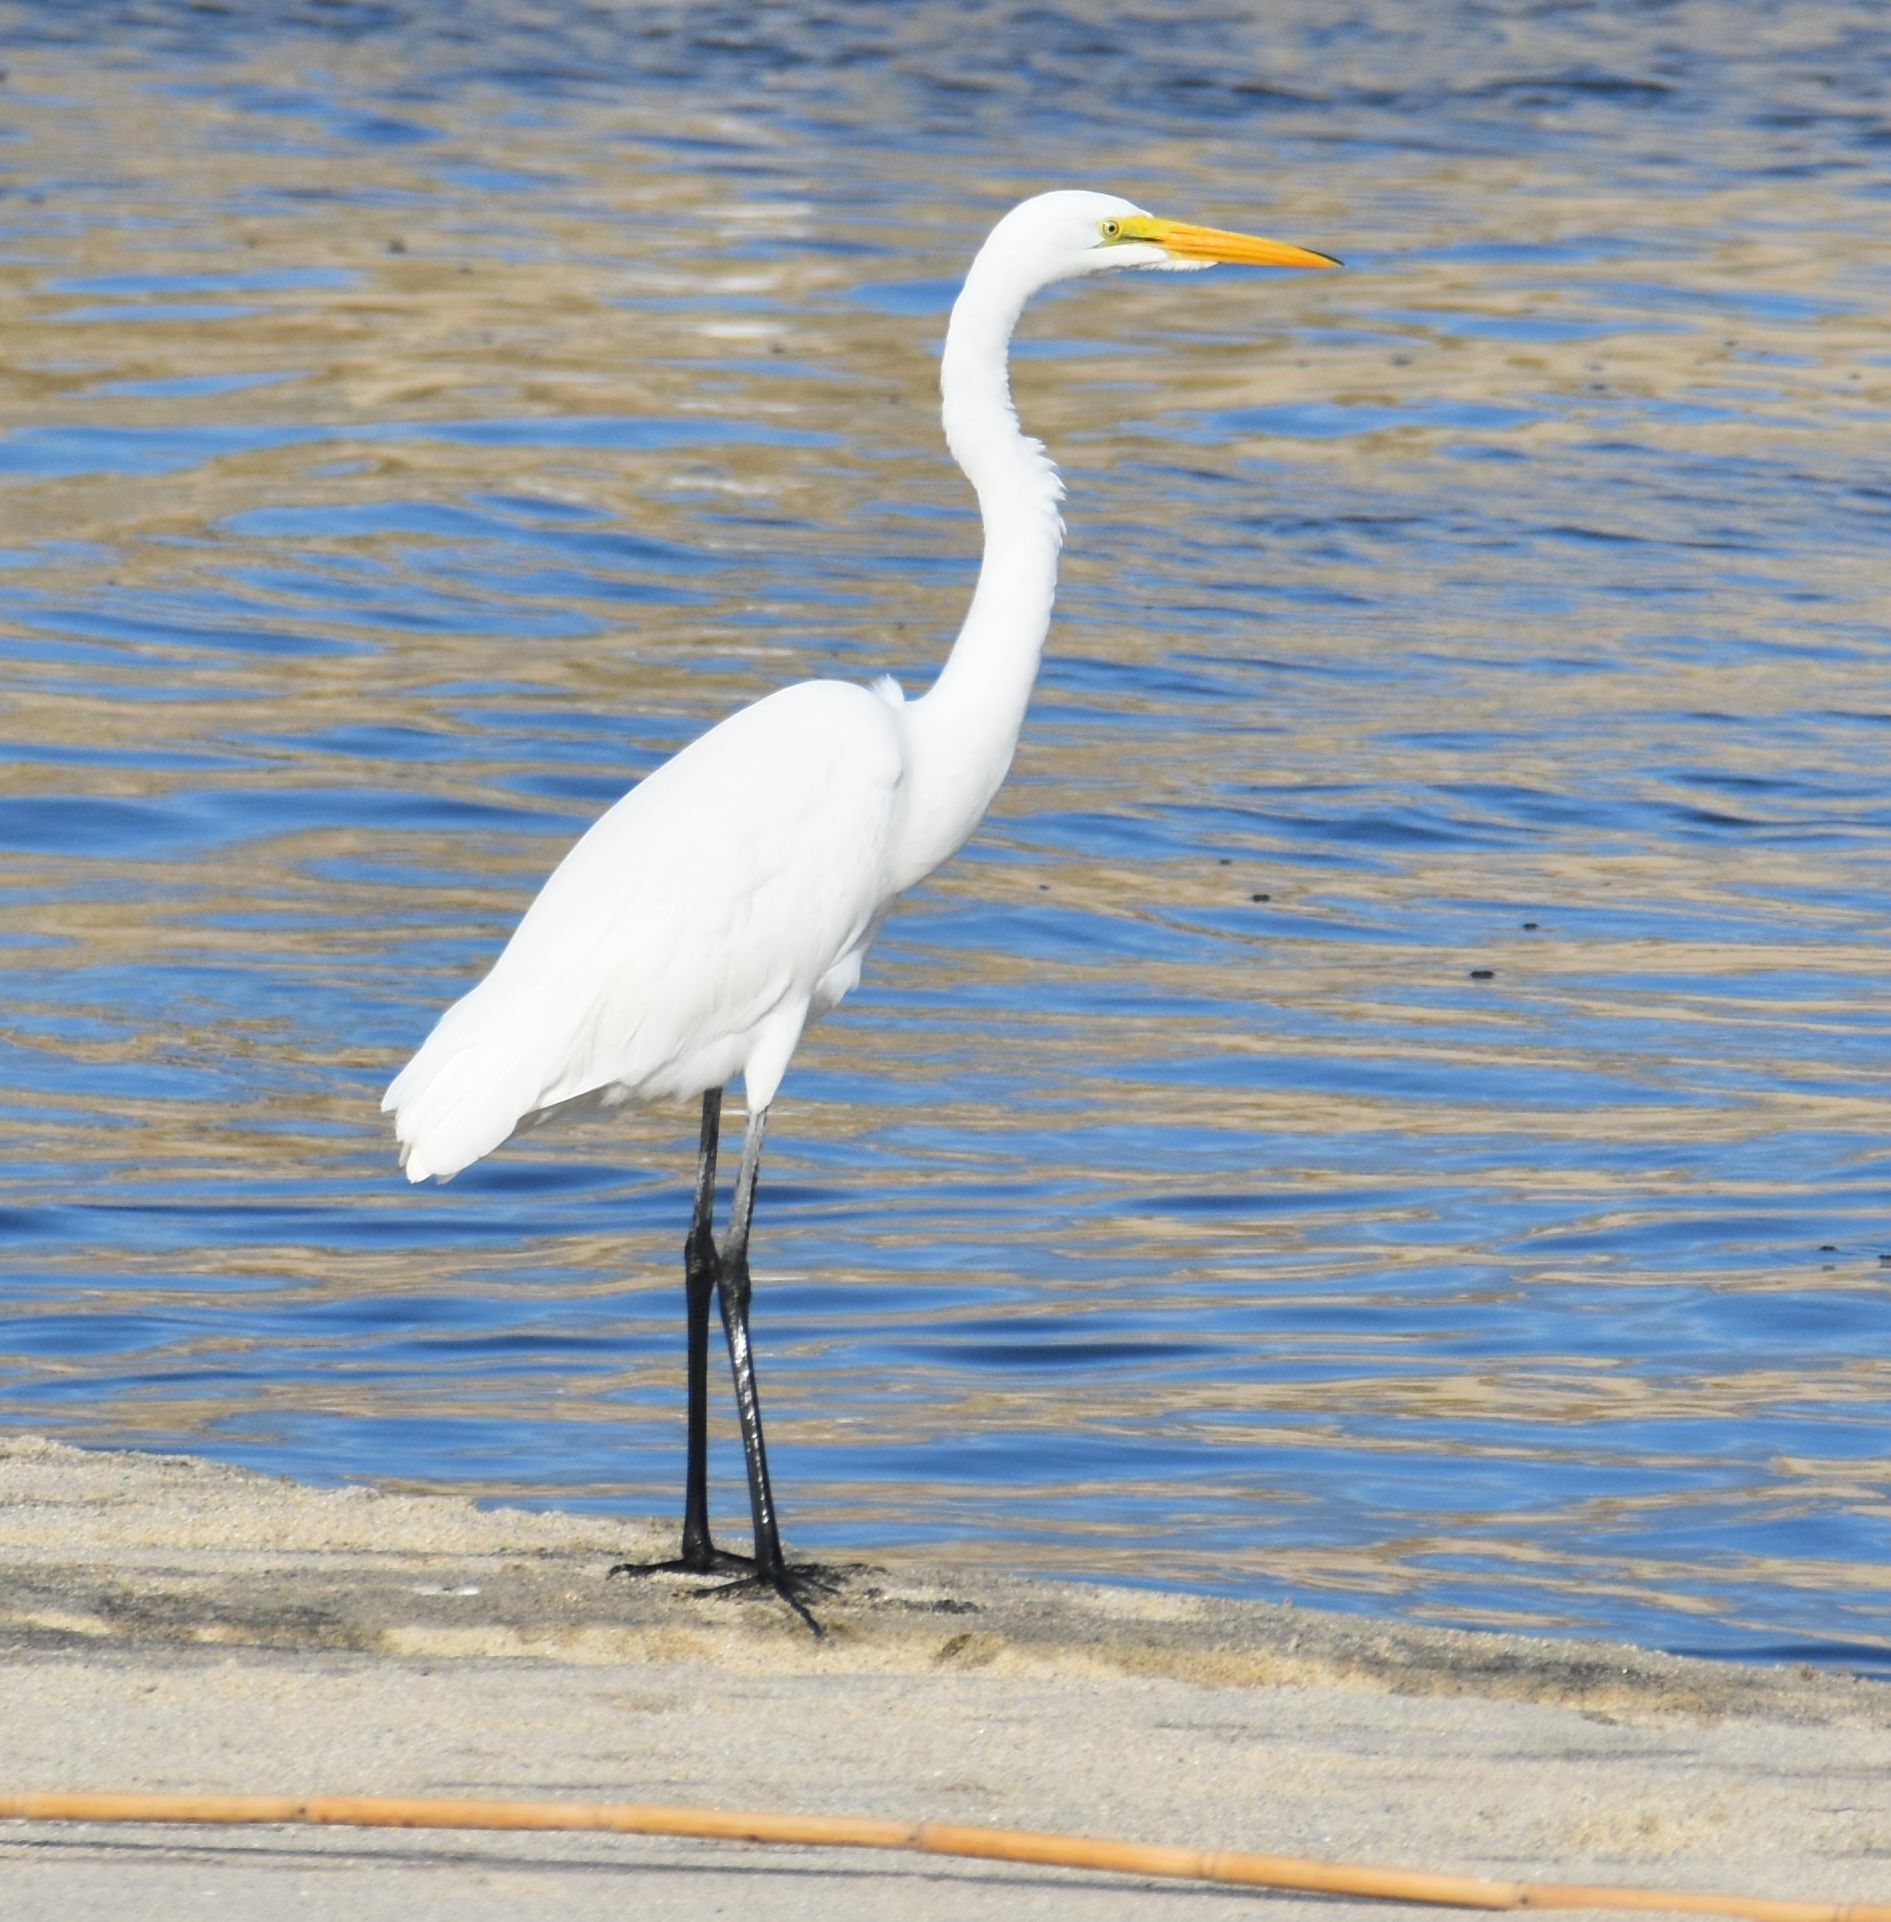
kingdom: Animalia
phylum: Chordata
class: Aves
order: Pelecaniformes
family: Ardeidae
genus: Ardea
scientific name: Ardea alba
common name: Great egret
